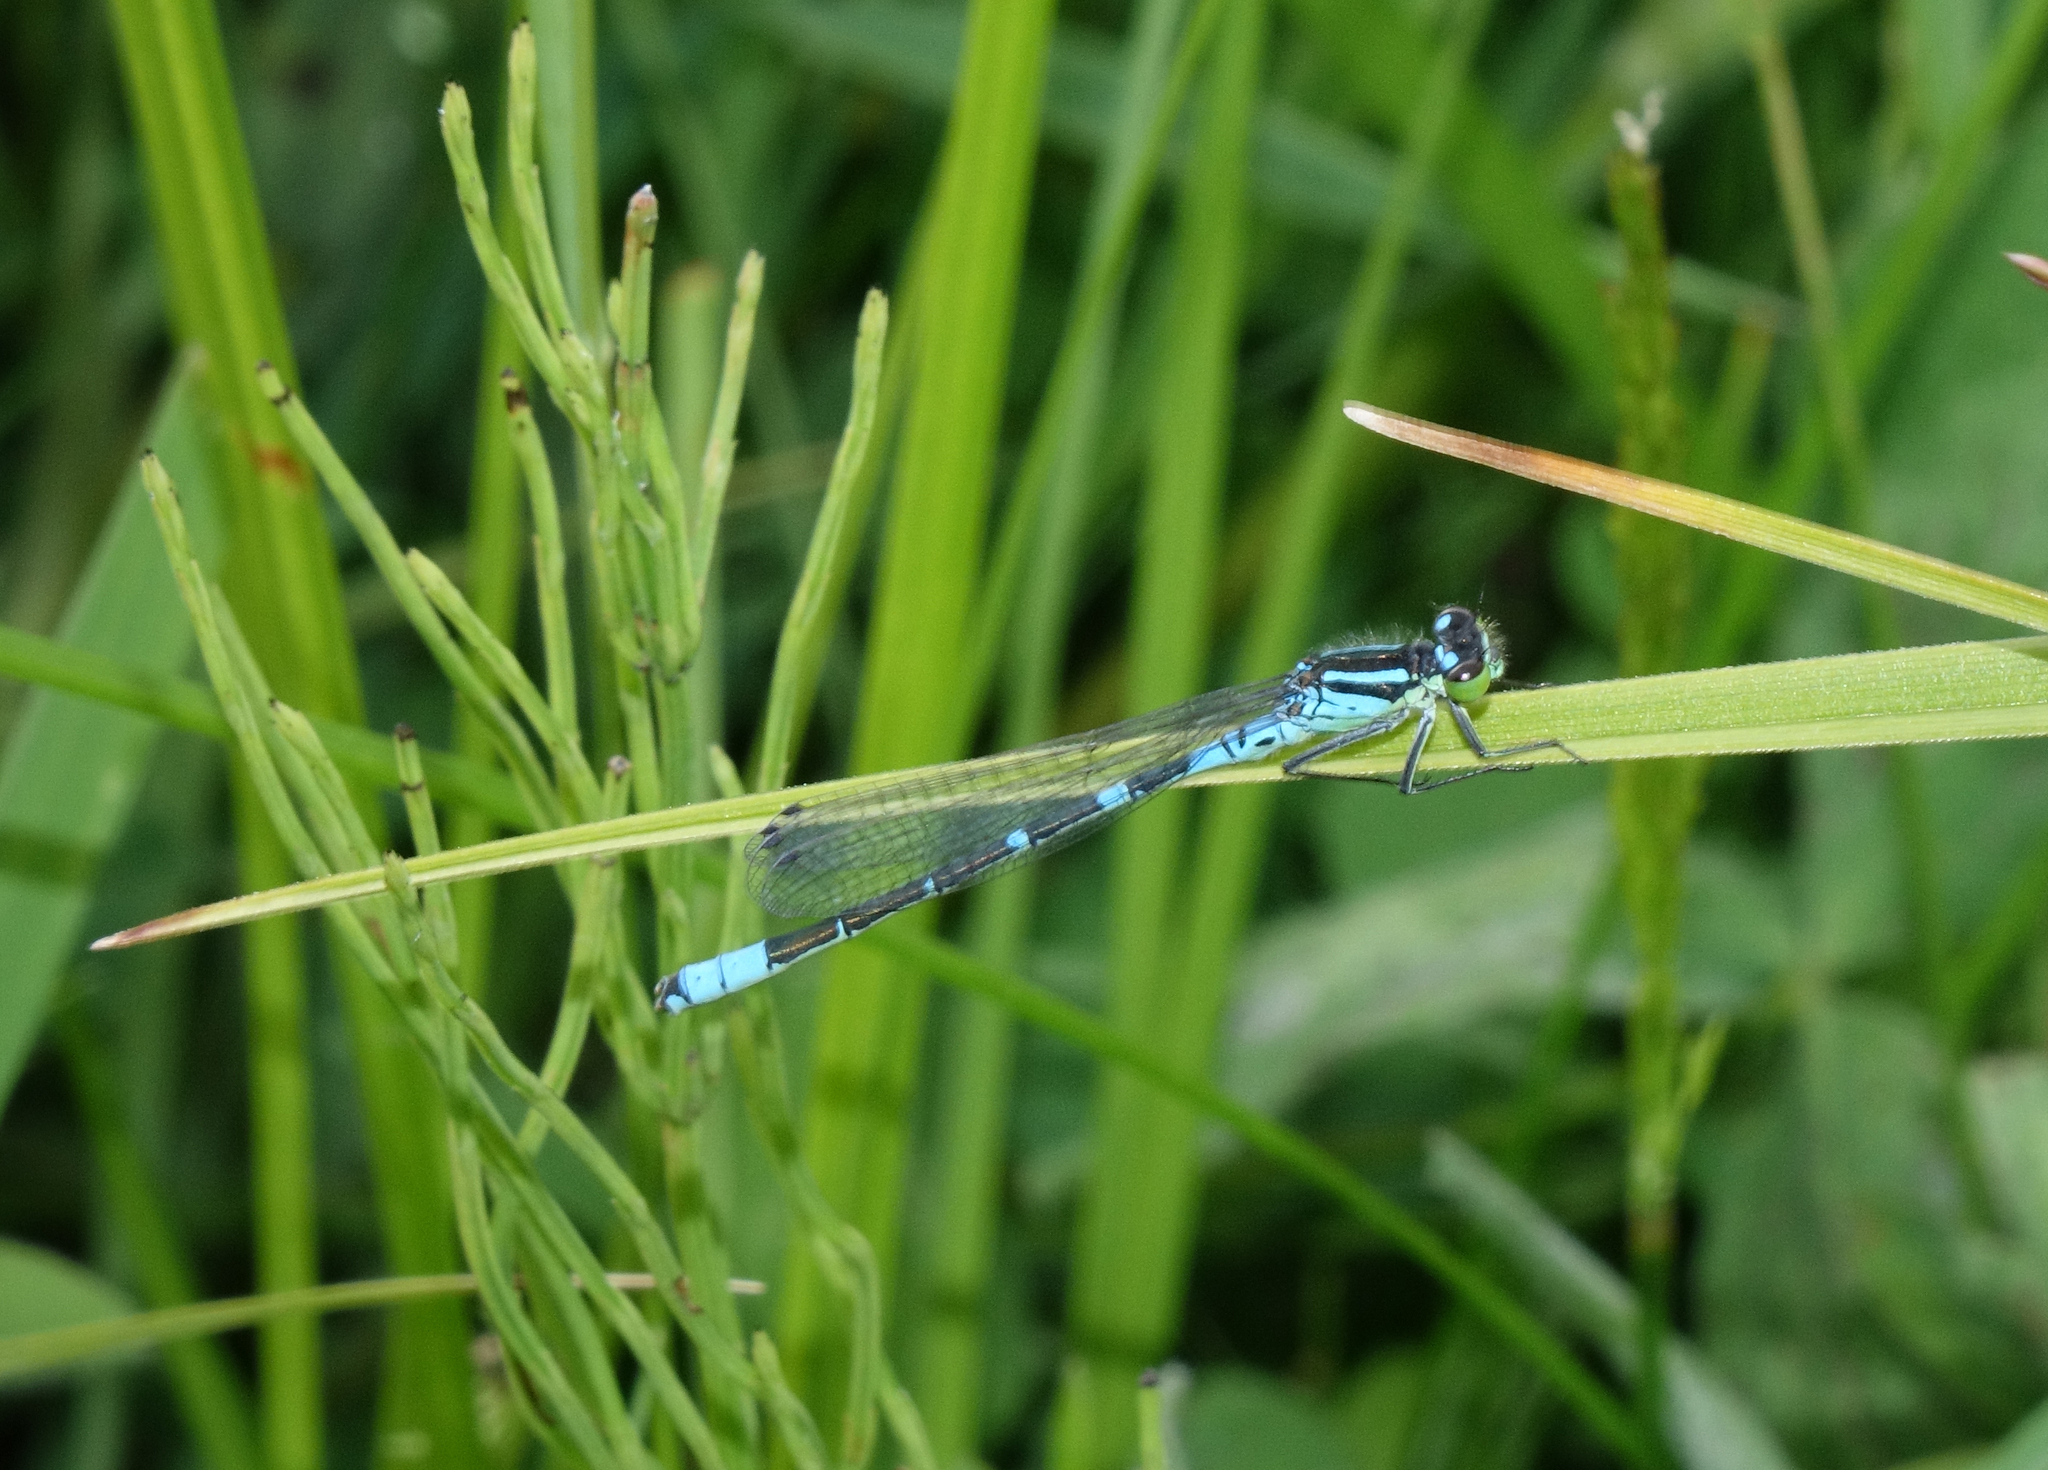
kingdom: Animalia
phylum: Arthropoda
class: Insecta
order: Odonata
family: Coenagrionidae
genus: Coenagrion
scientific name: Coenagrion lunulatum
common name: Irish damselfly
